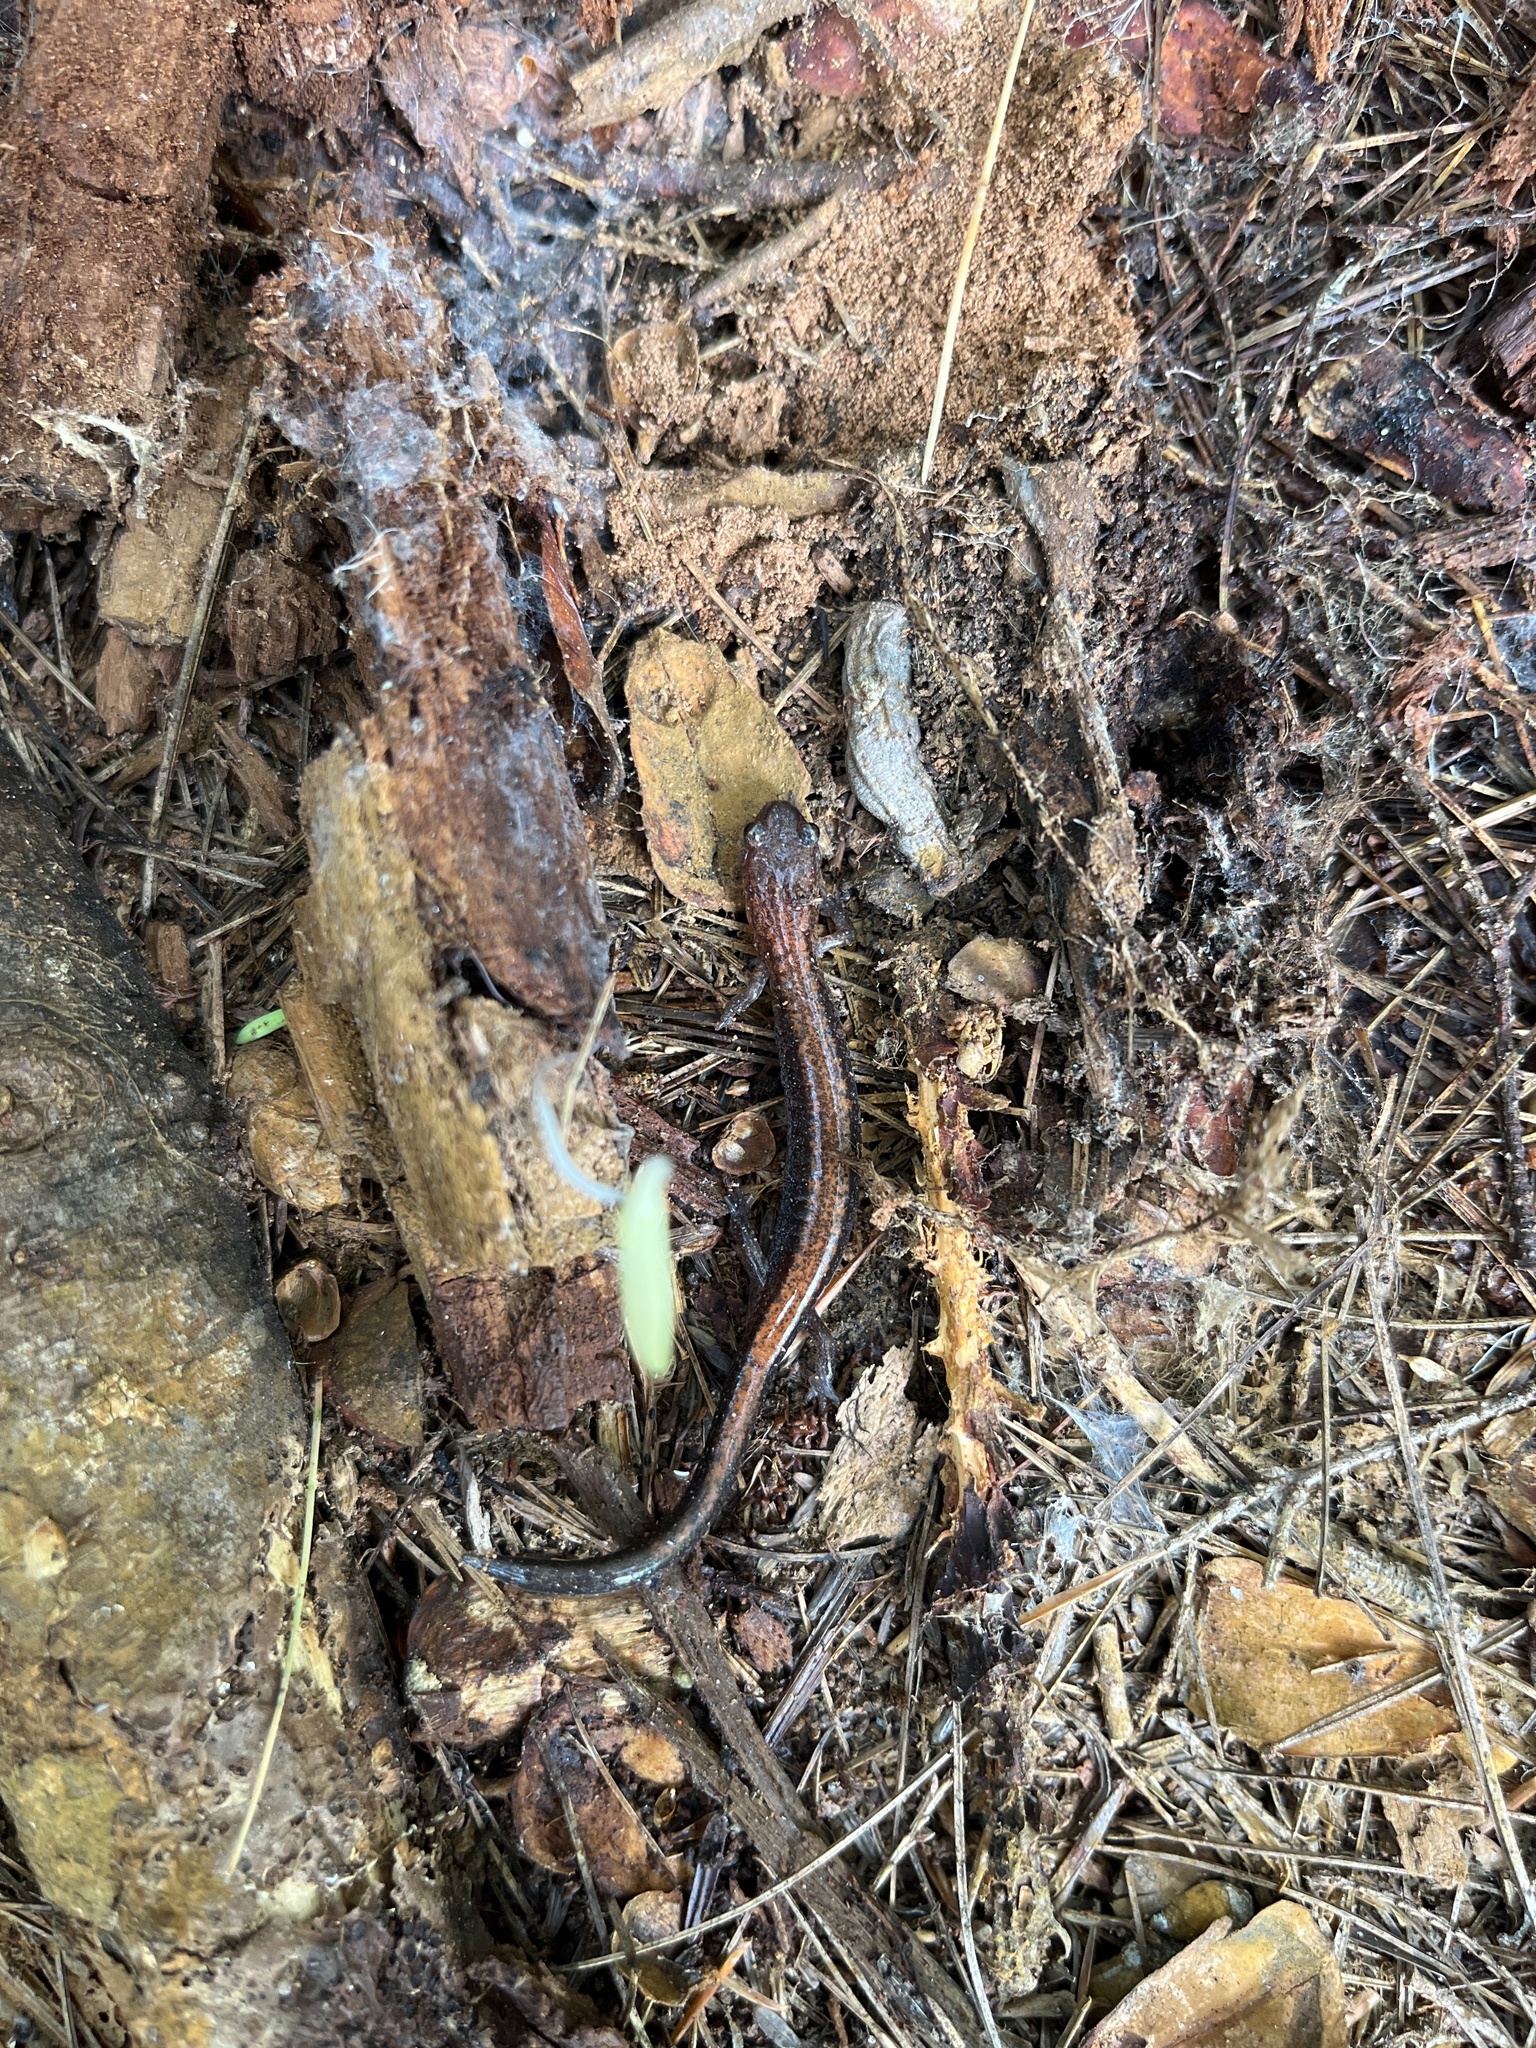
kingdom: Animalia
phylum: Chordata
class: Amphibia
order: Caudata
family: Plethodontidae
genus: Plethodon
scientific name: Plethodon cinereus
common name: Redback salamander
